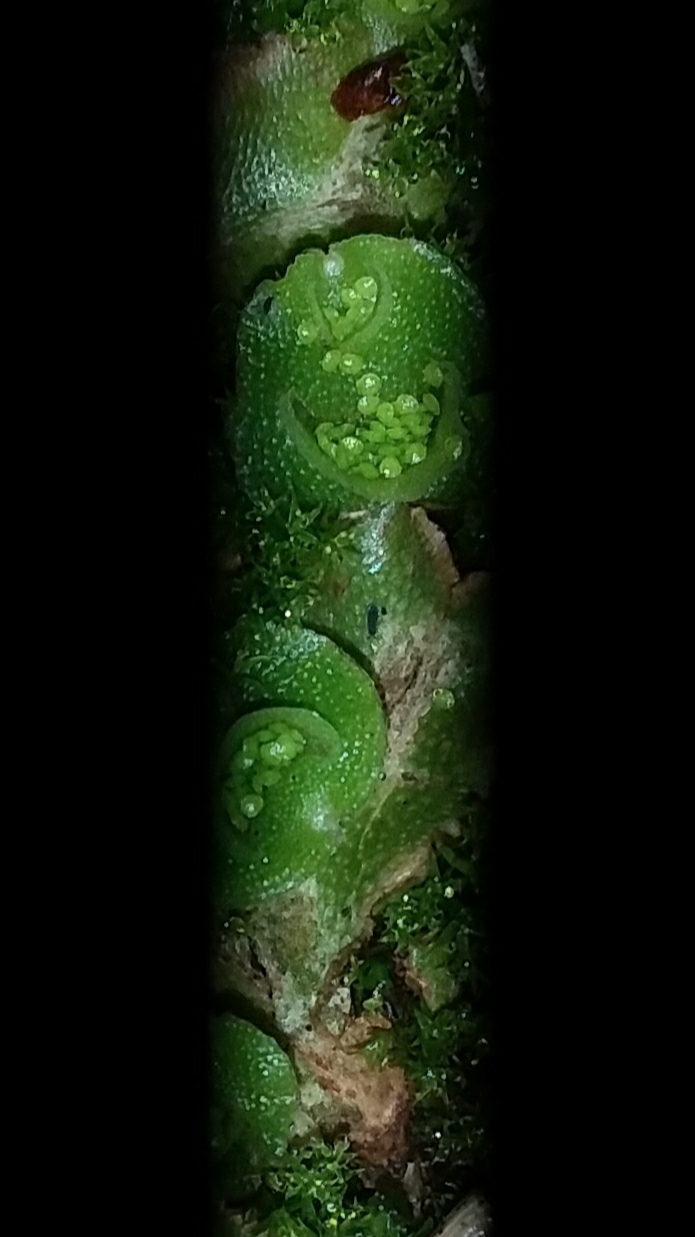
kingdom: Plantae
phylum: Marchantiophyta
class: Marchantiopsida
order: Lunulariales
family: Lunulariaceae
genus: Lunularia
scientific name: Lunularia cruciata
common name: Crescent-cup liverwort
